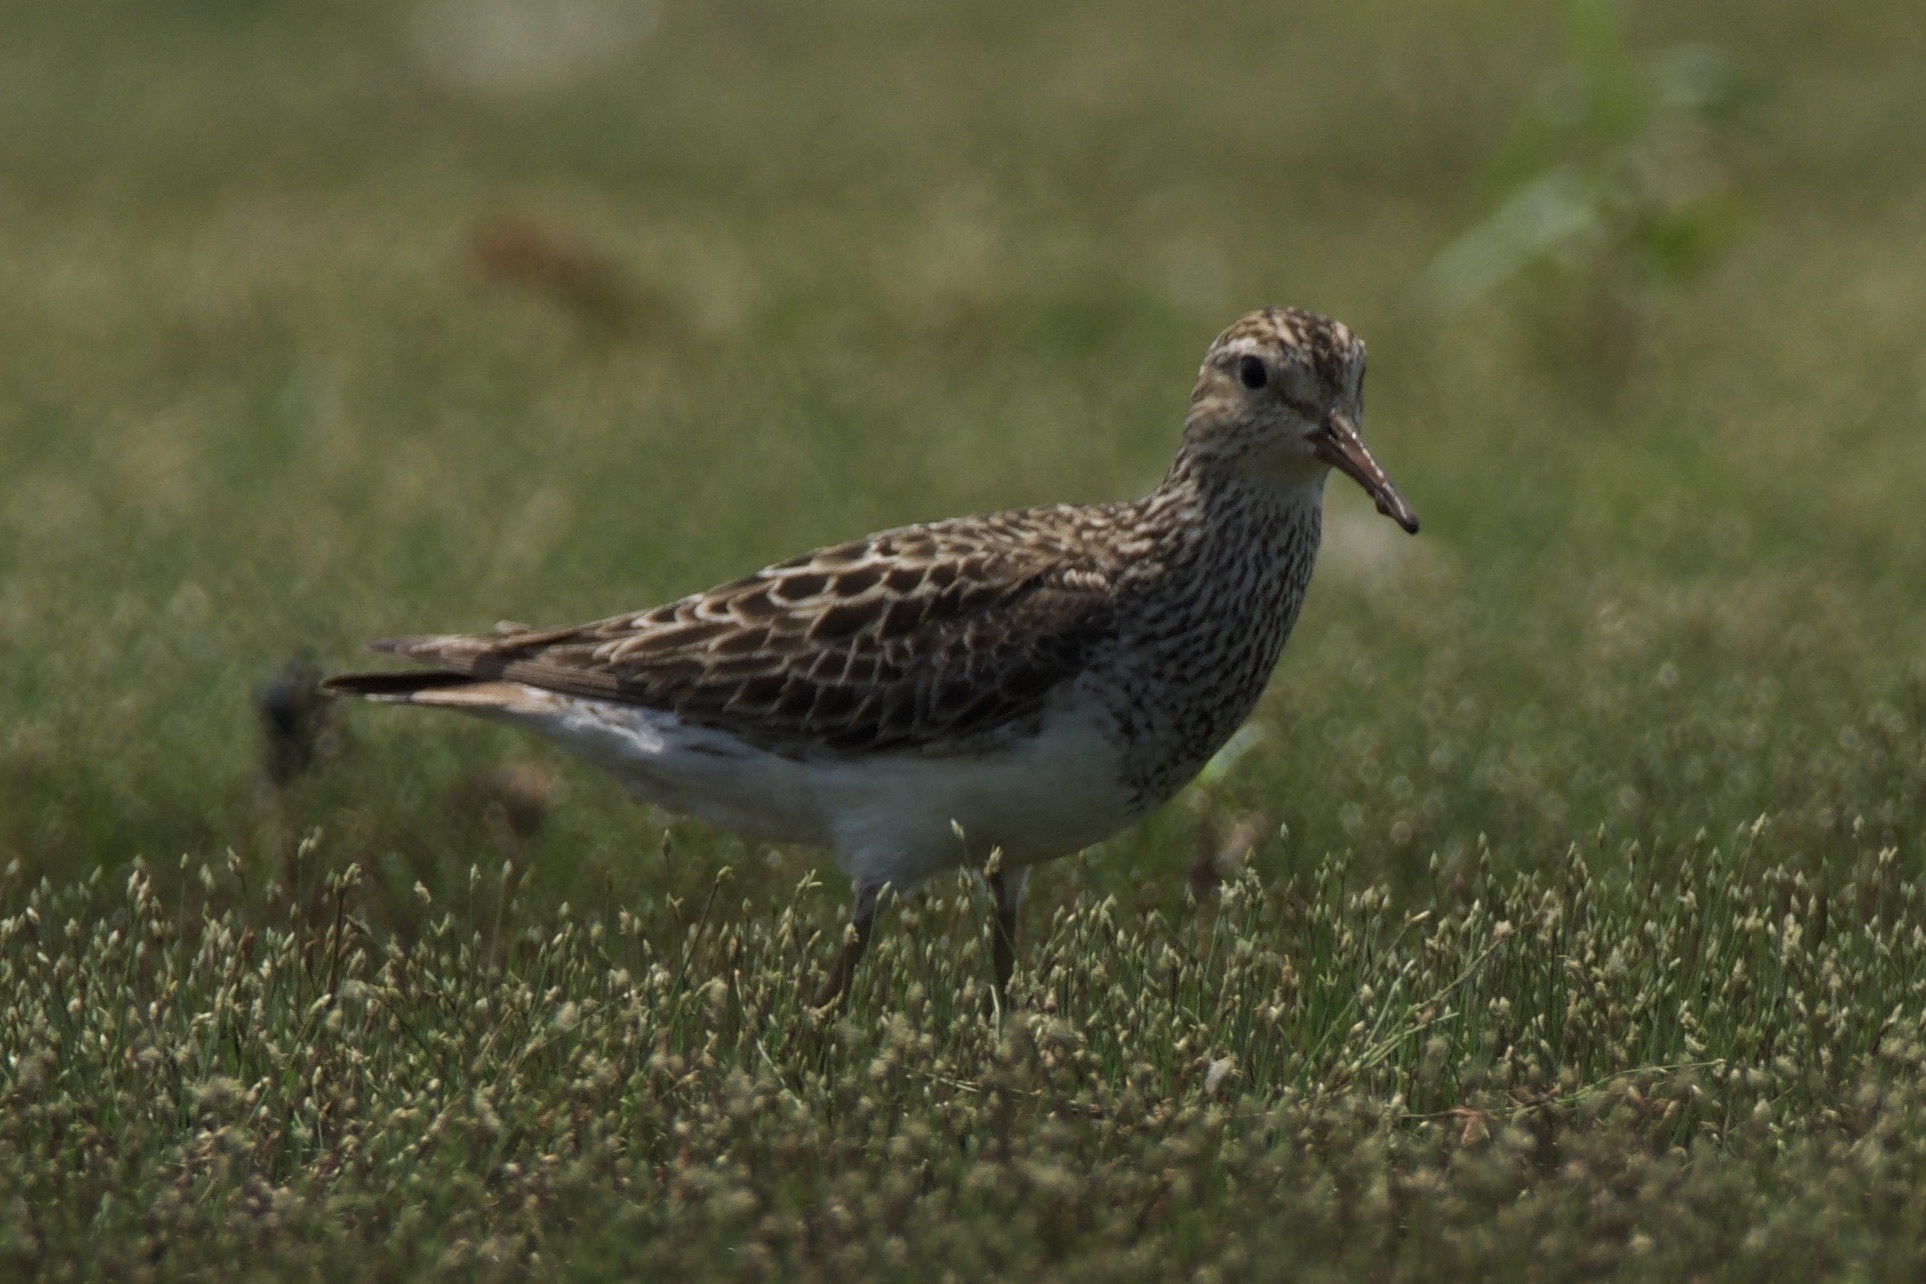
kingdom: Animalia
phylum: Chordata
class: Aves
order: Charadriiformes
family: Scolopacidae
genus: Calidris
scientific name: Calidris melanotos
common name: Pectoral sandpiper
